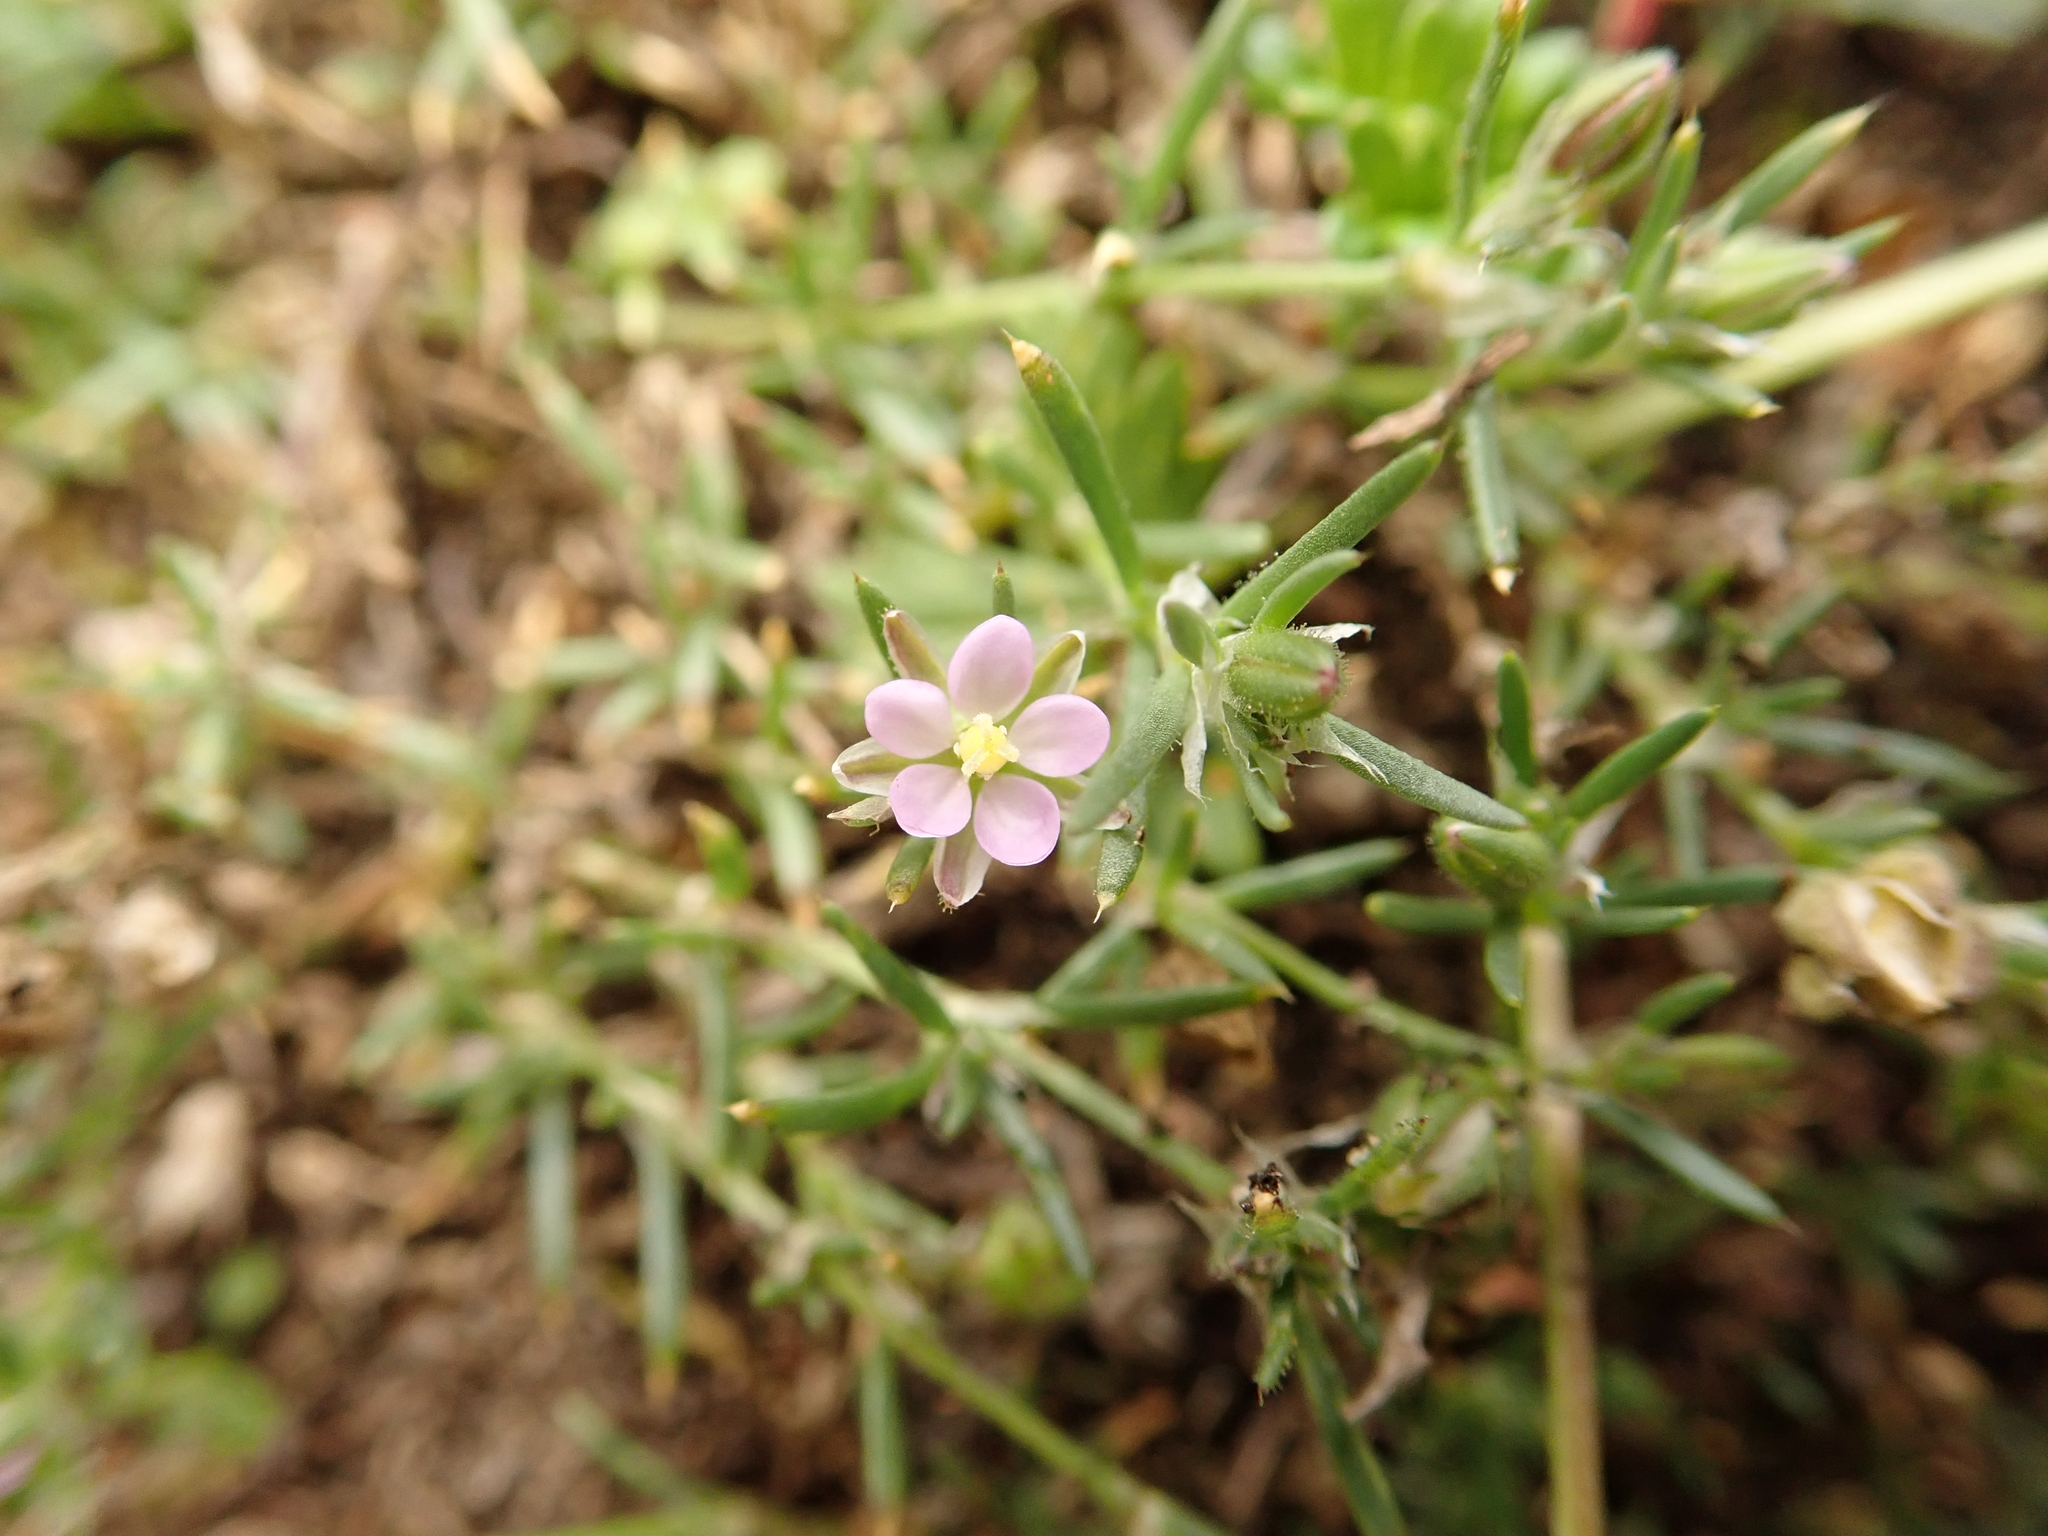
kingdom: Plantae
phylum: Tracheophyta
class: Magnoliopsida
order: Caryophyllales
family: Caryophyllaceae
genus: Spergularia
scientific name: Spergularia rubra
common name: Red sand-spurrey
